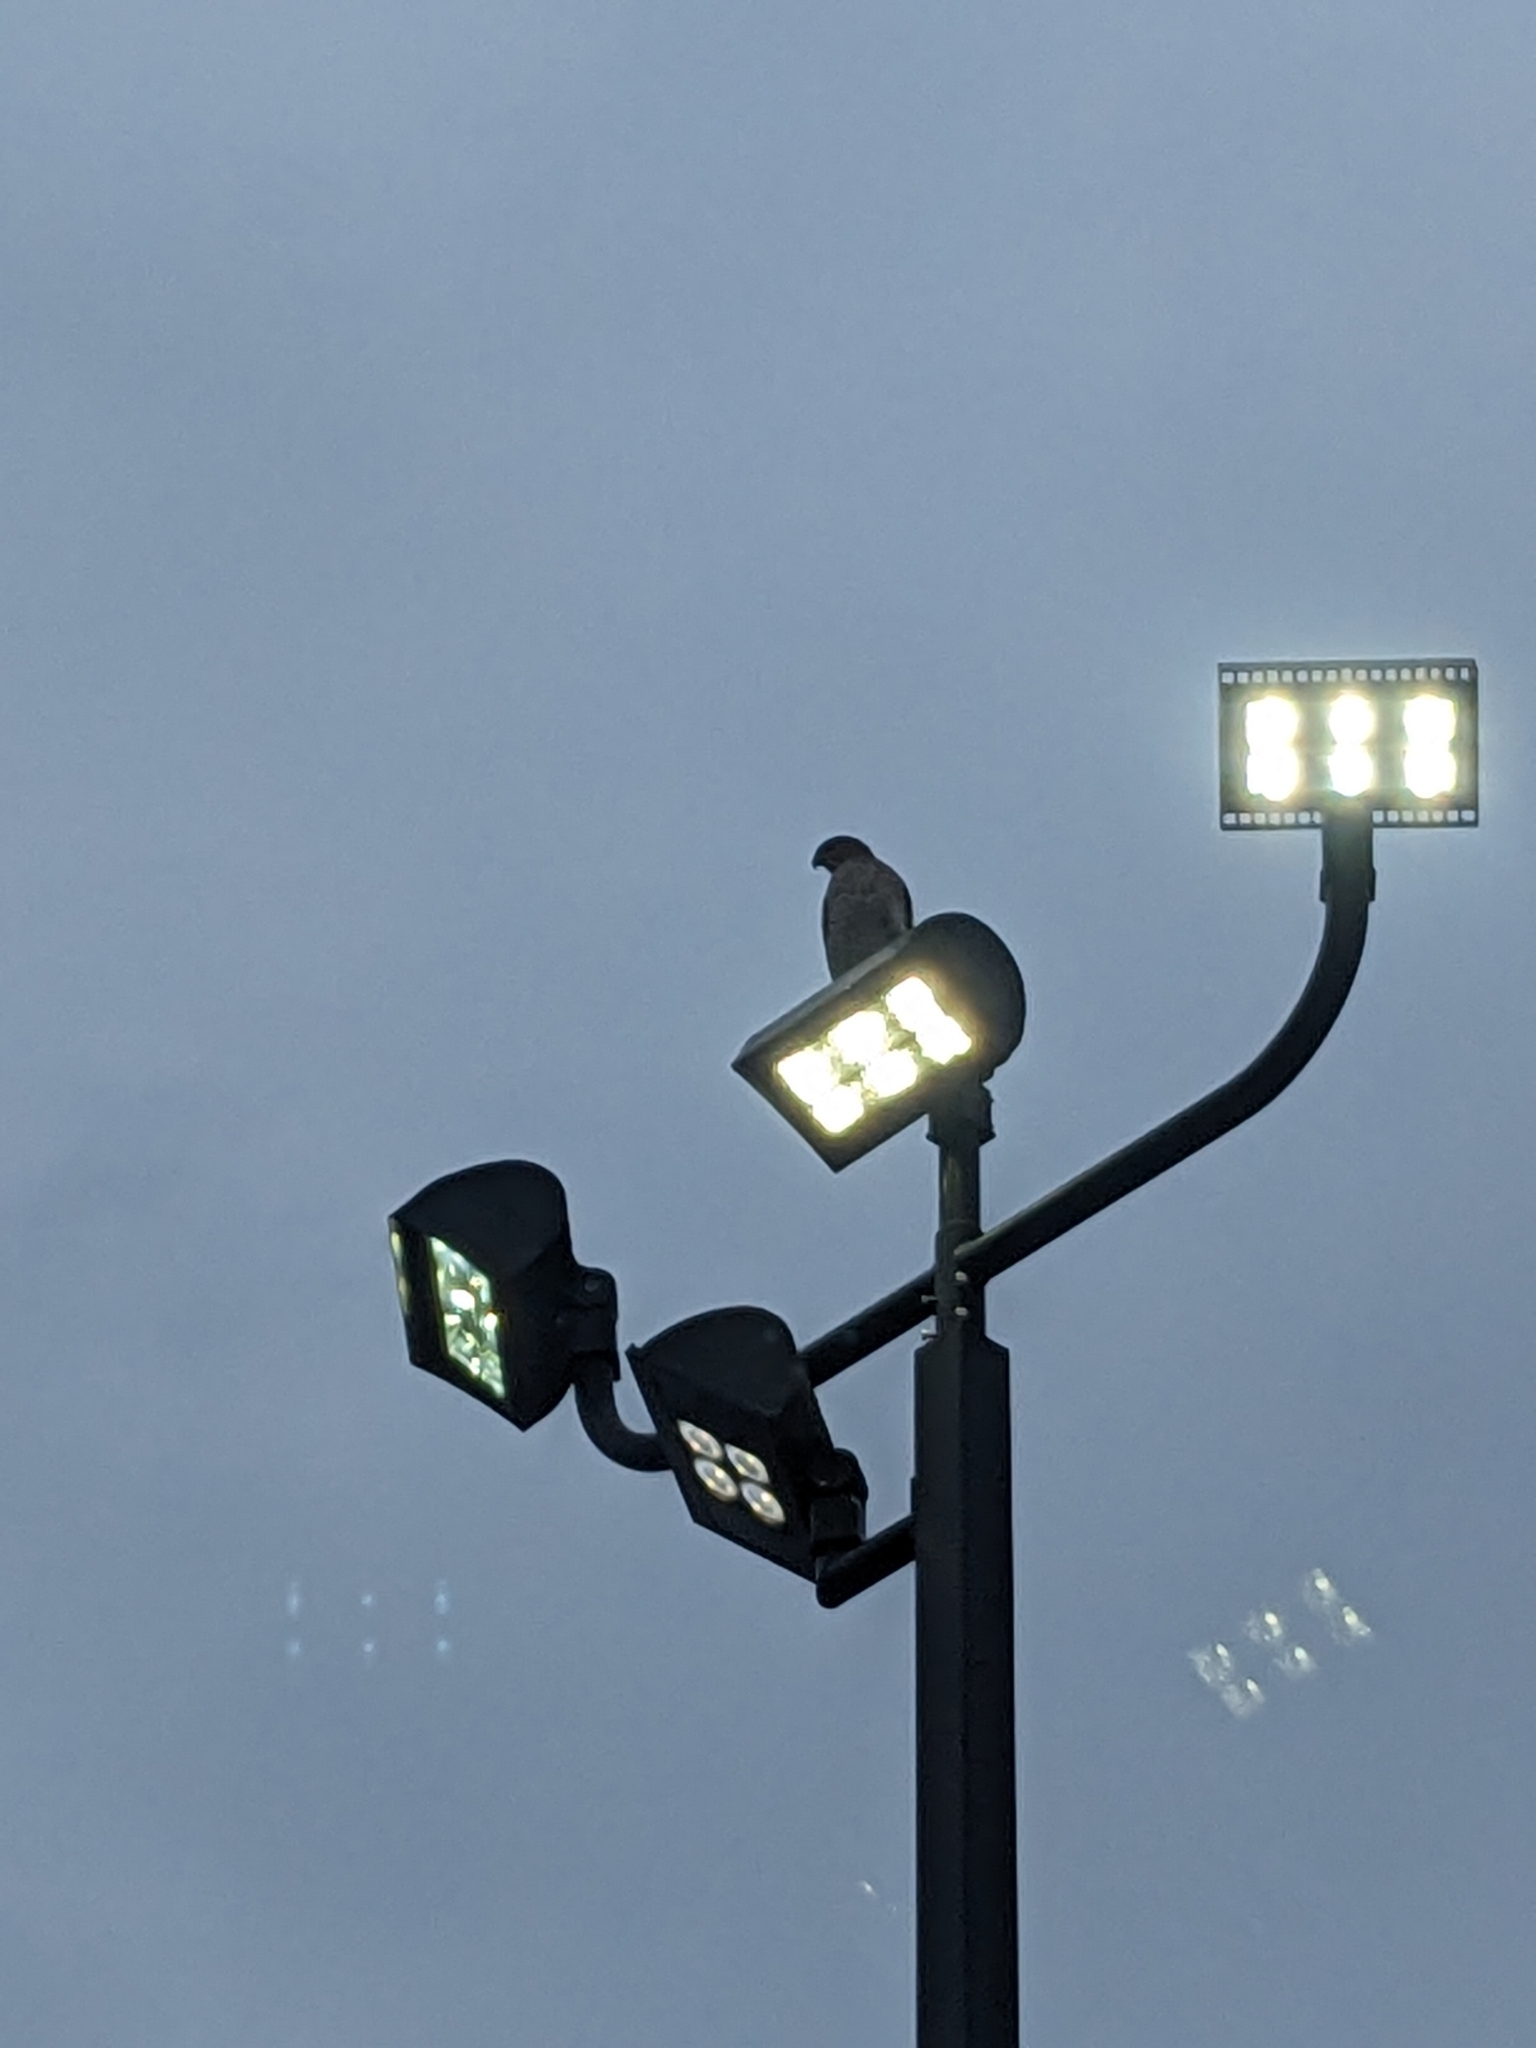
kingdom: Animalia
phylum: Chordata
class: Aves
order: Accipitriformes
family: Accipitridae
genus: Accipiter
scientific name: Accipiter cooperii
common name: Cooper's hawk
